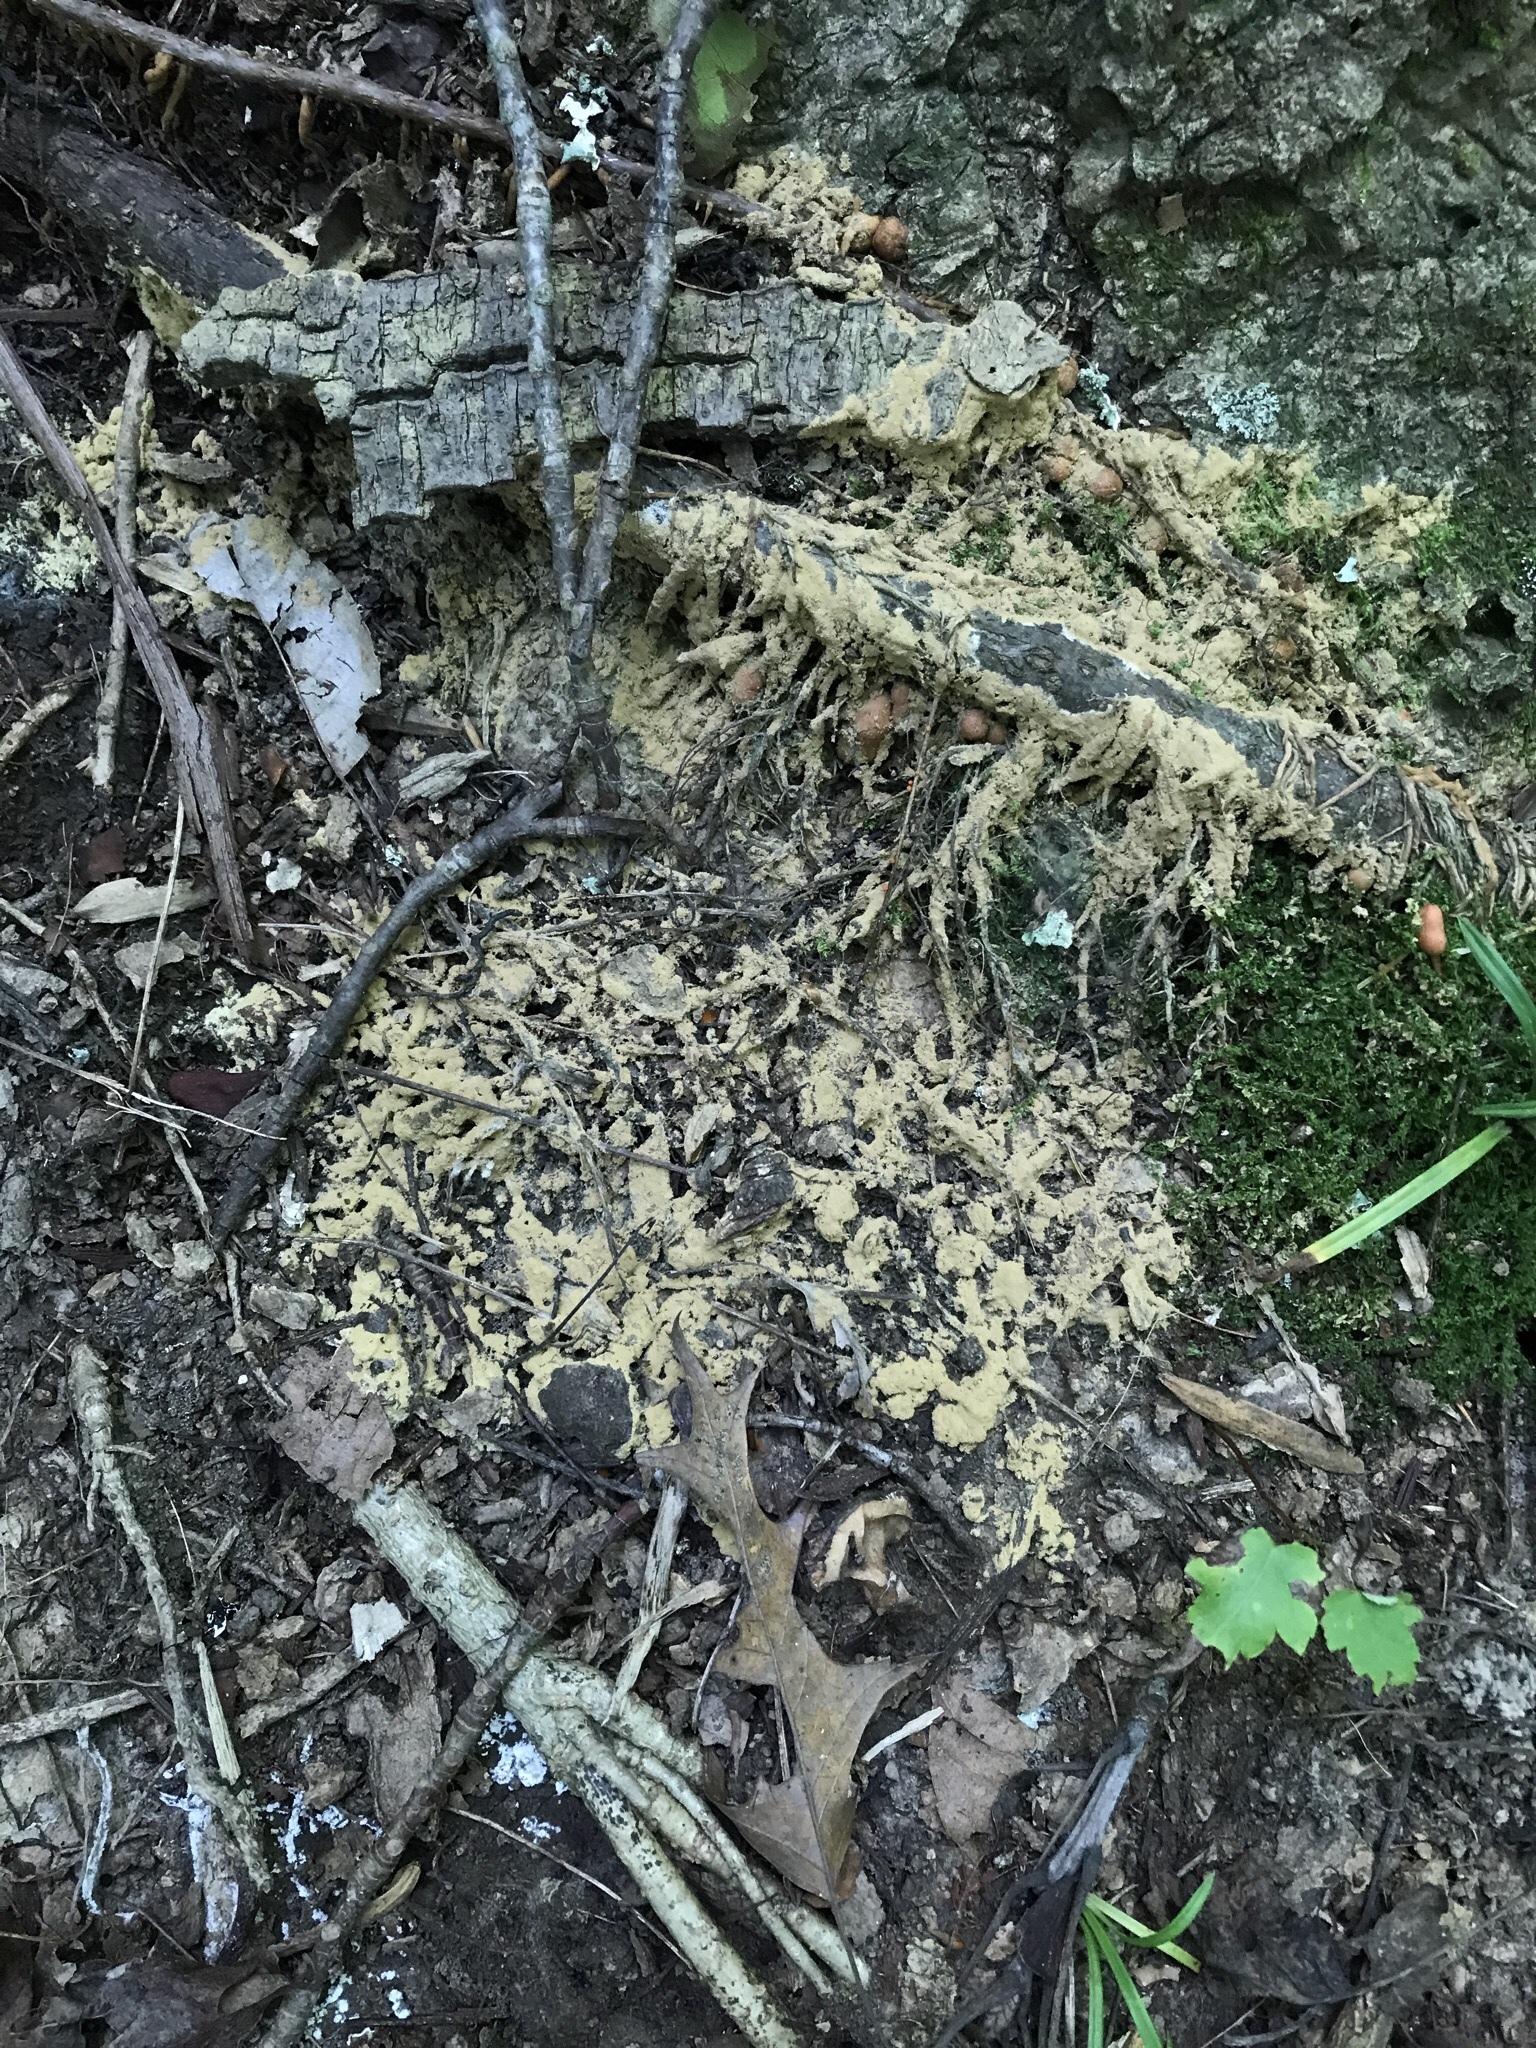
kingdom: Protozoa
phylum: Mycetozoa
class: Myxomycetes
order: Physarales
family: Physaraceae
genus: Fuligo
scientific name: Fuligo septica
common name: Dog vomit slime mold
